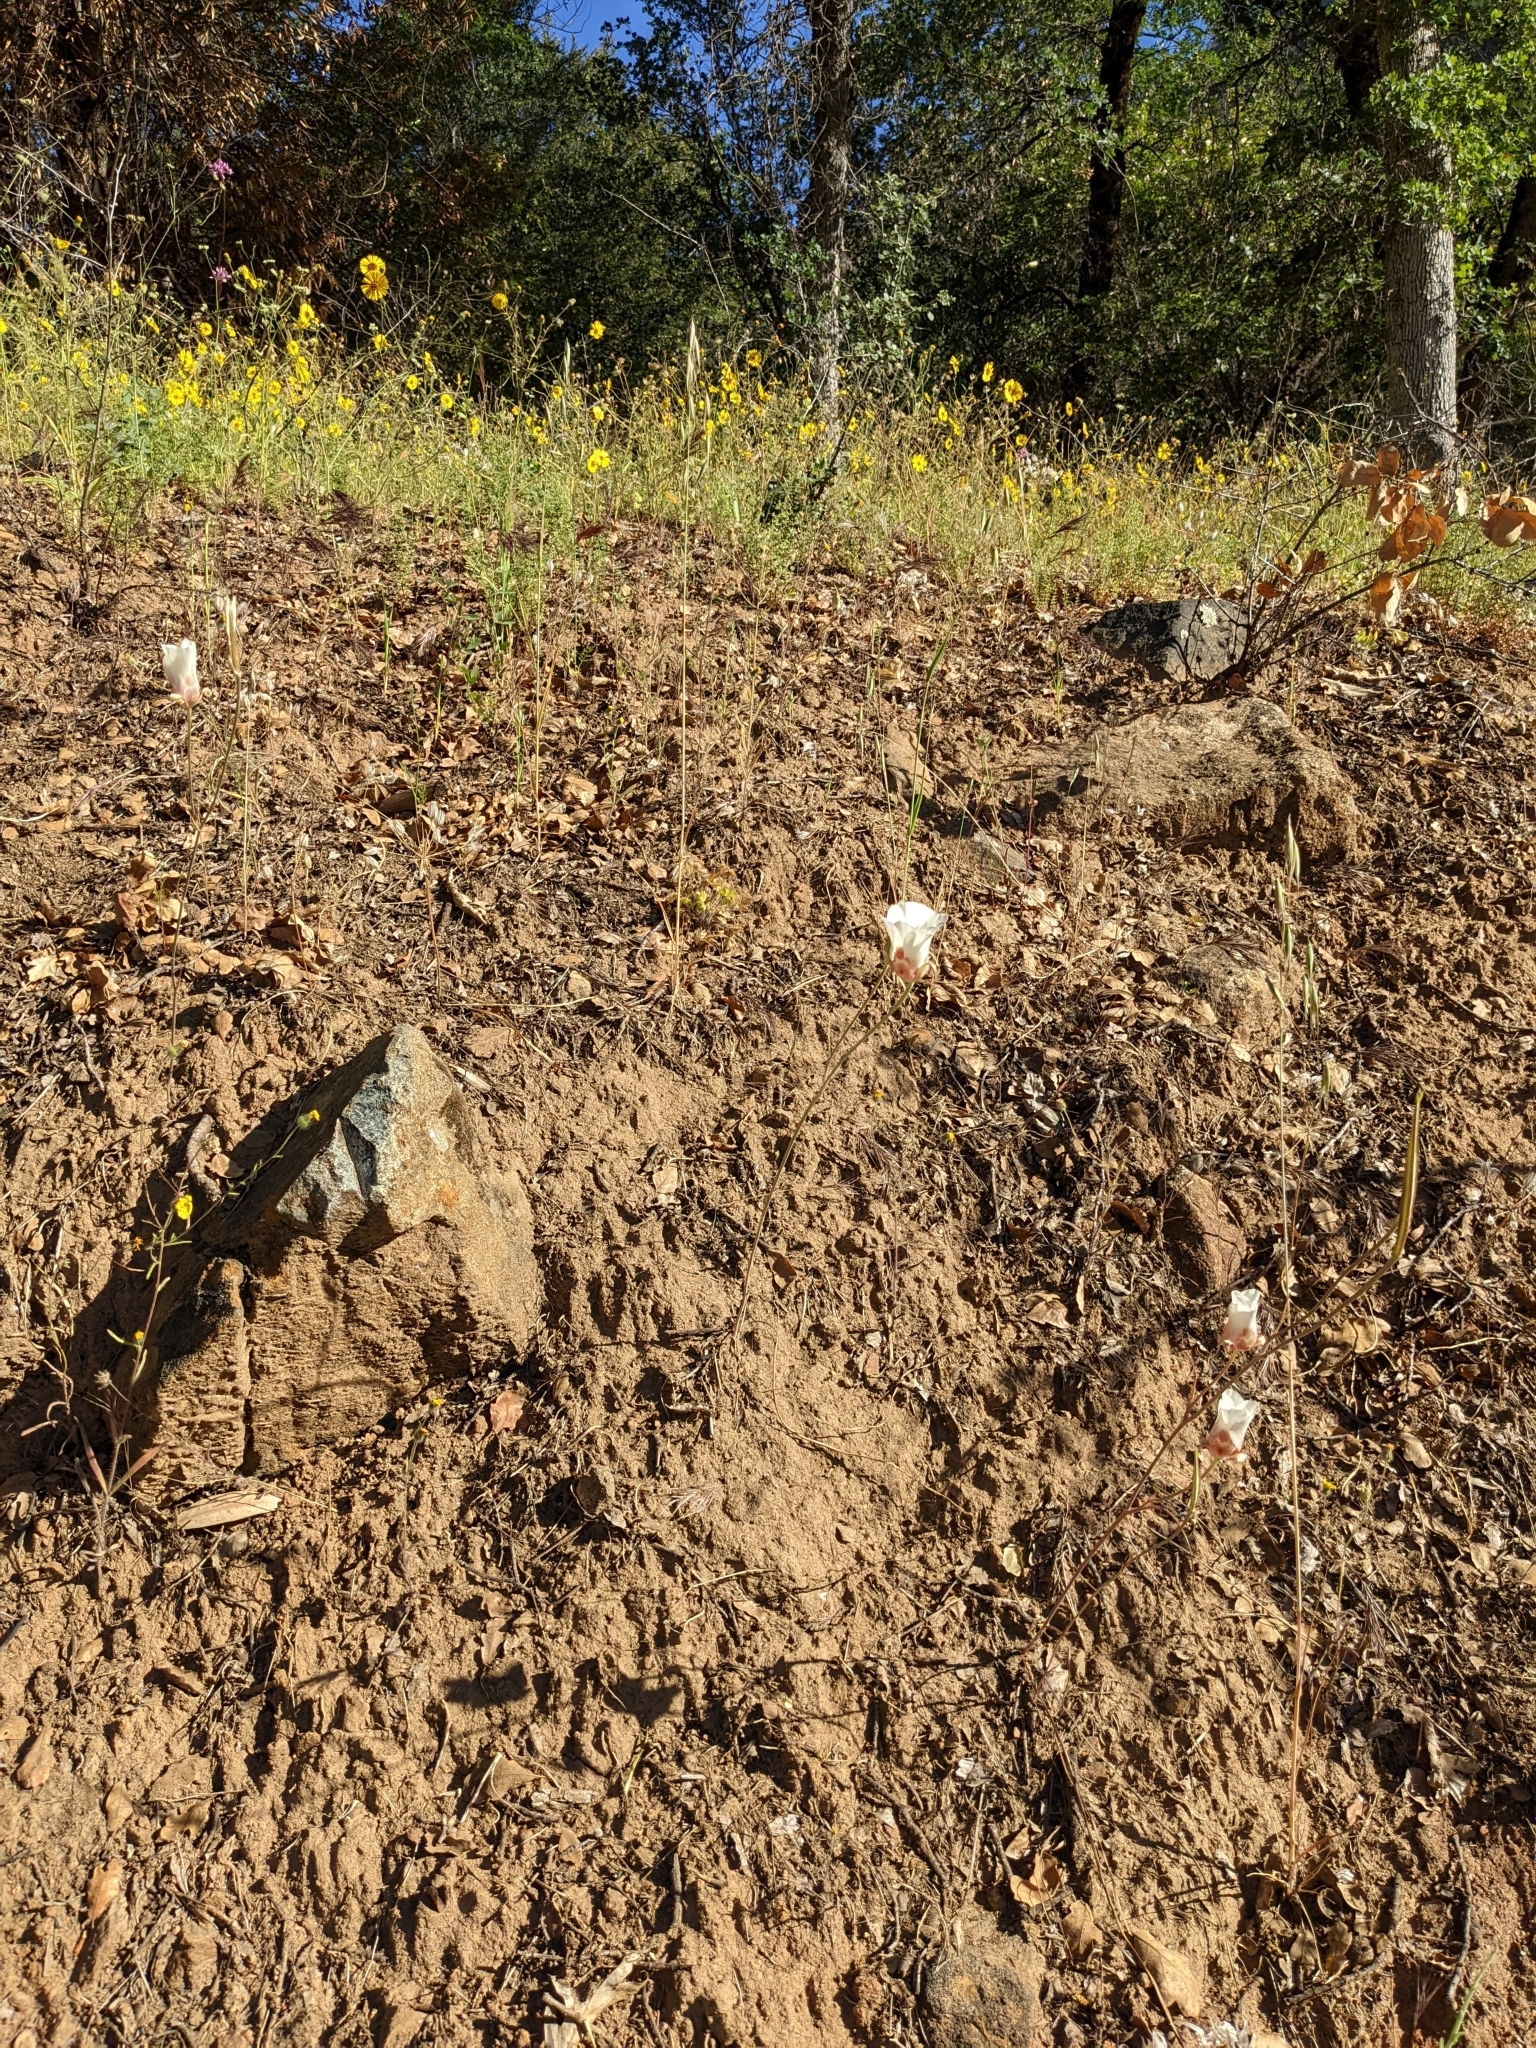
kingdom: Plantae
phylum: Tracheophyta
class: Liliopsida
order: Liliales
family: Liliaceae
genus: Calochortus
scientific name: Calochortus venustus
